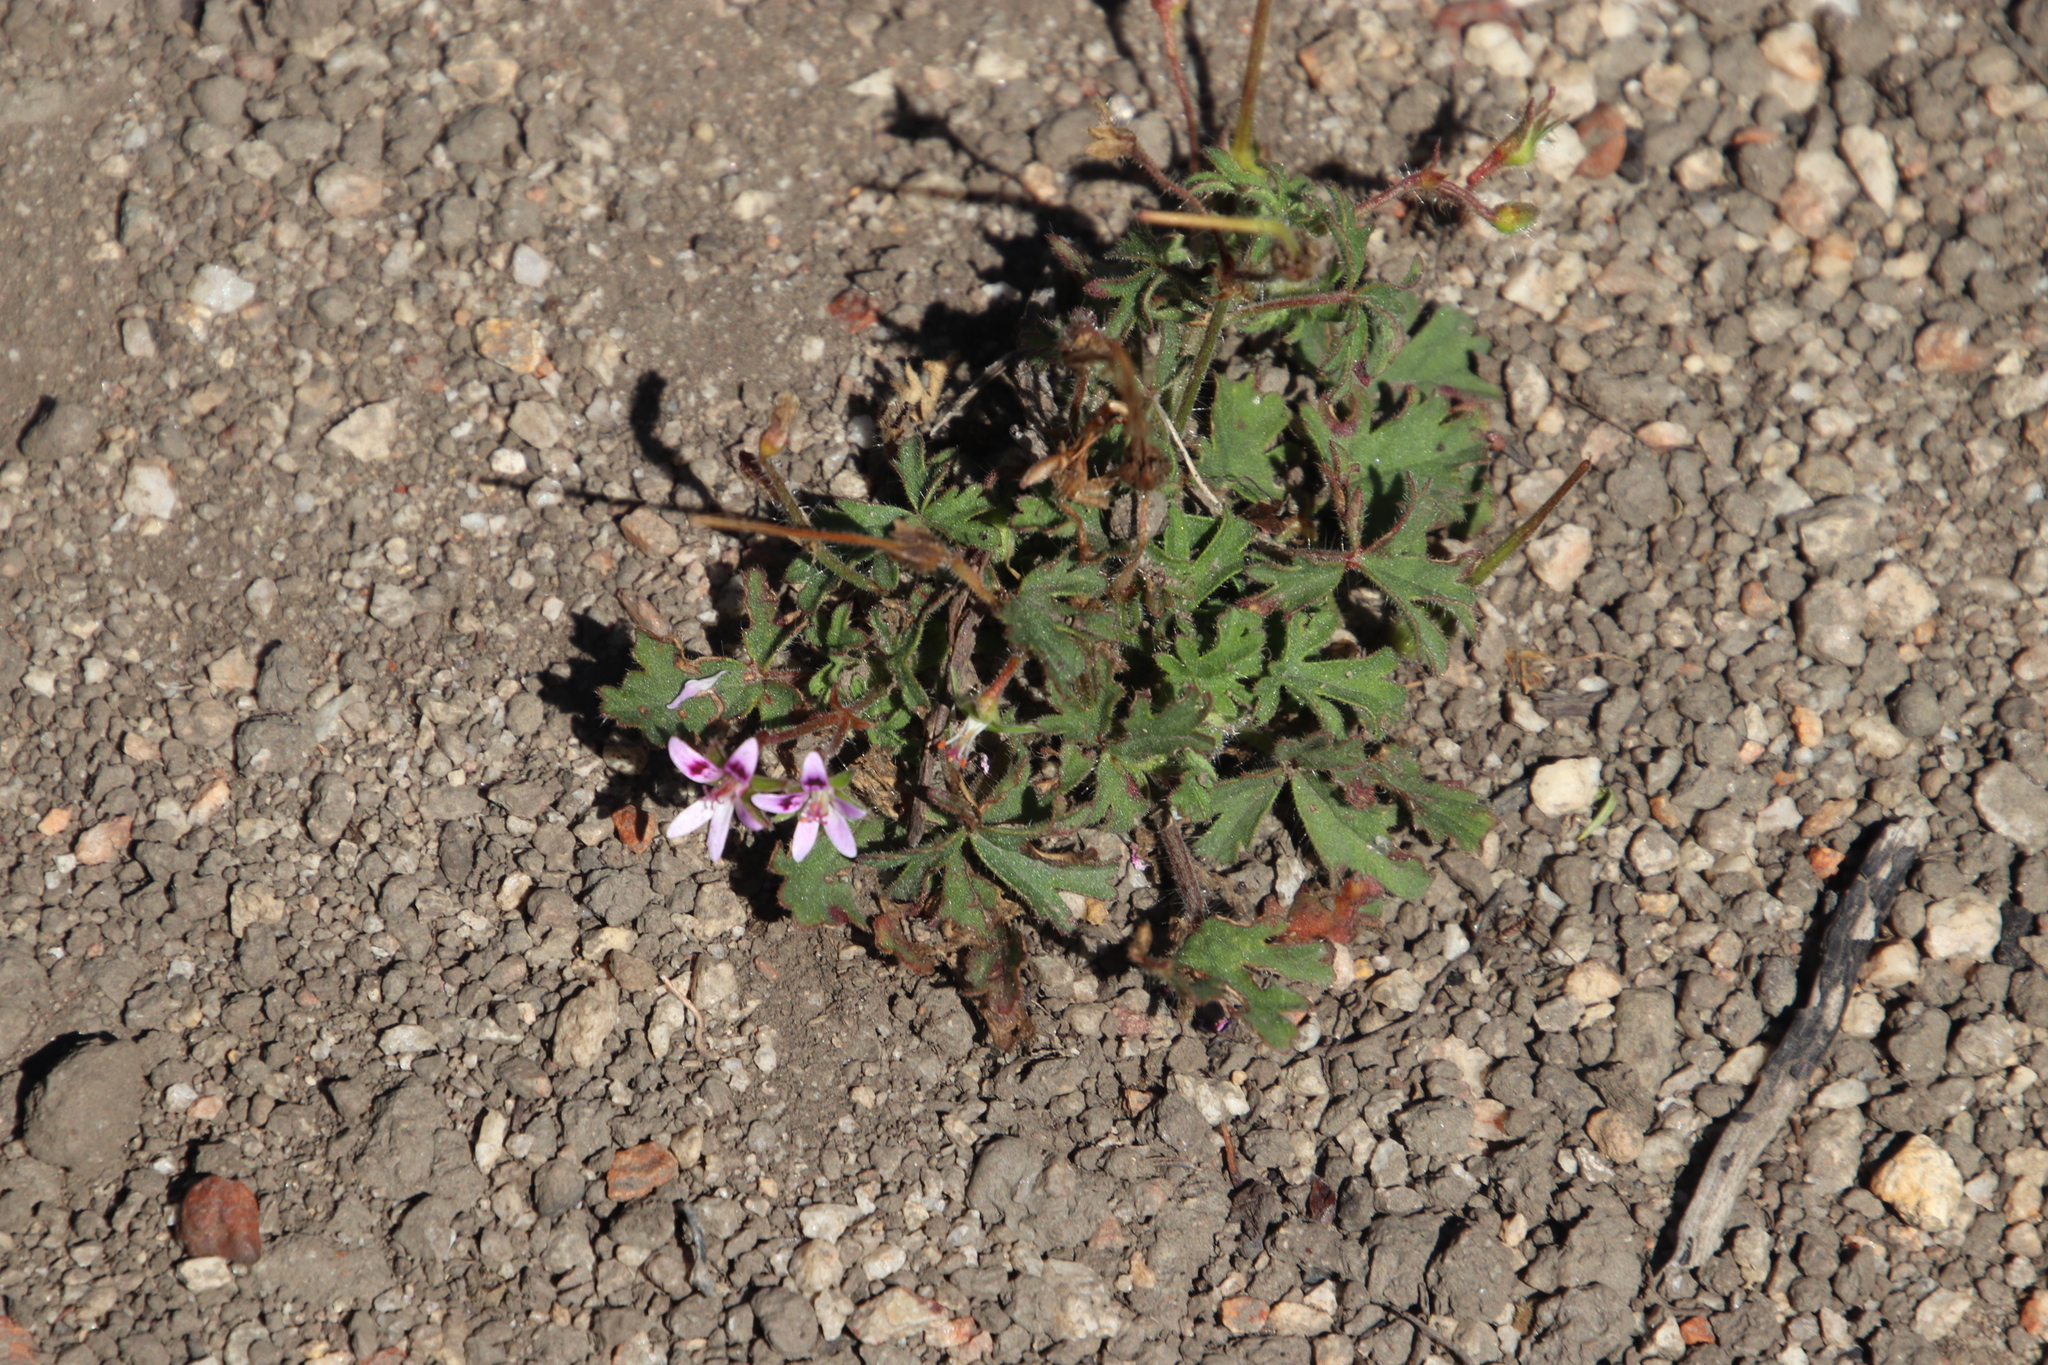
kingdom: Plantae
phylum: Tracheophyta
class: Magnoliopsida
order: Geraniales
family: Geraniaceae
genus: Pelargonium
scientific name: Pelargonium columbinum
